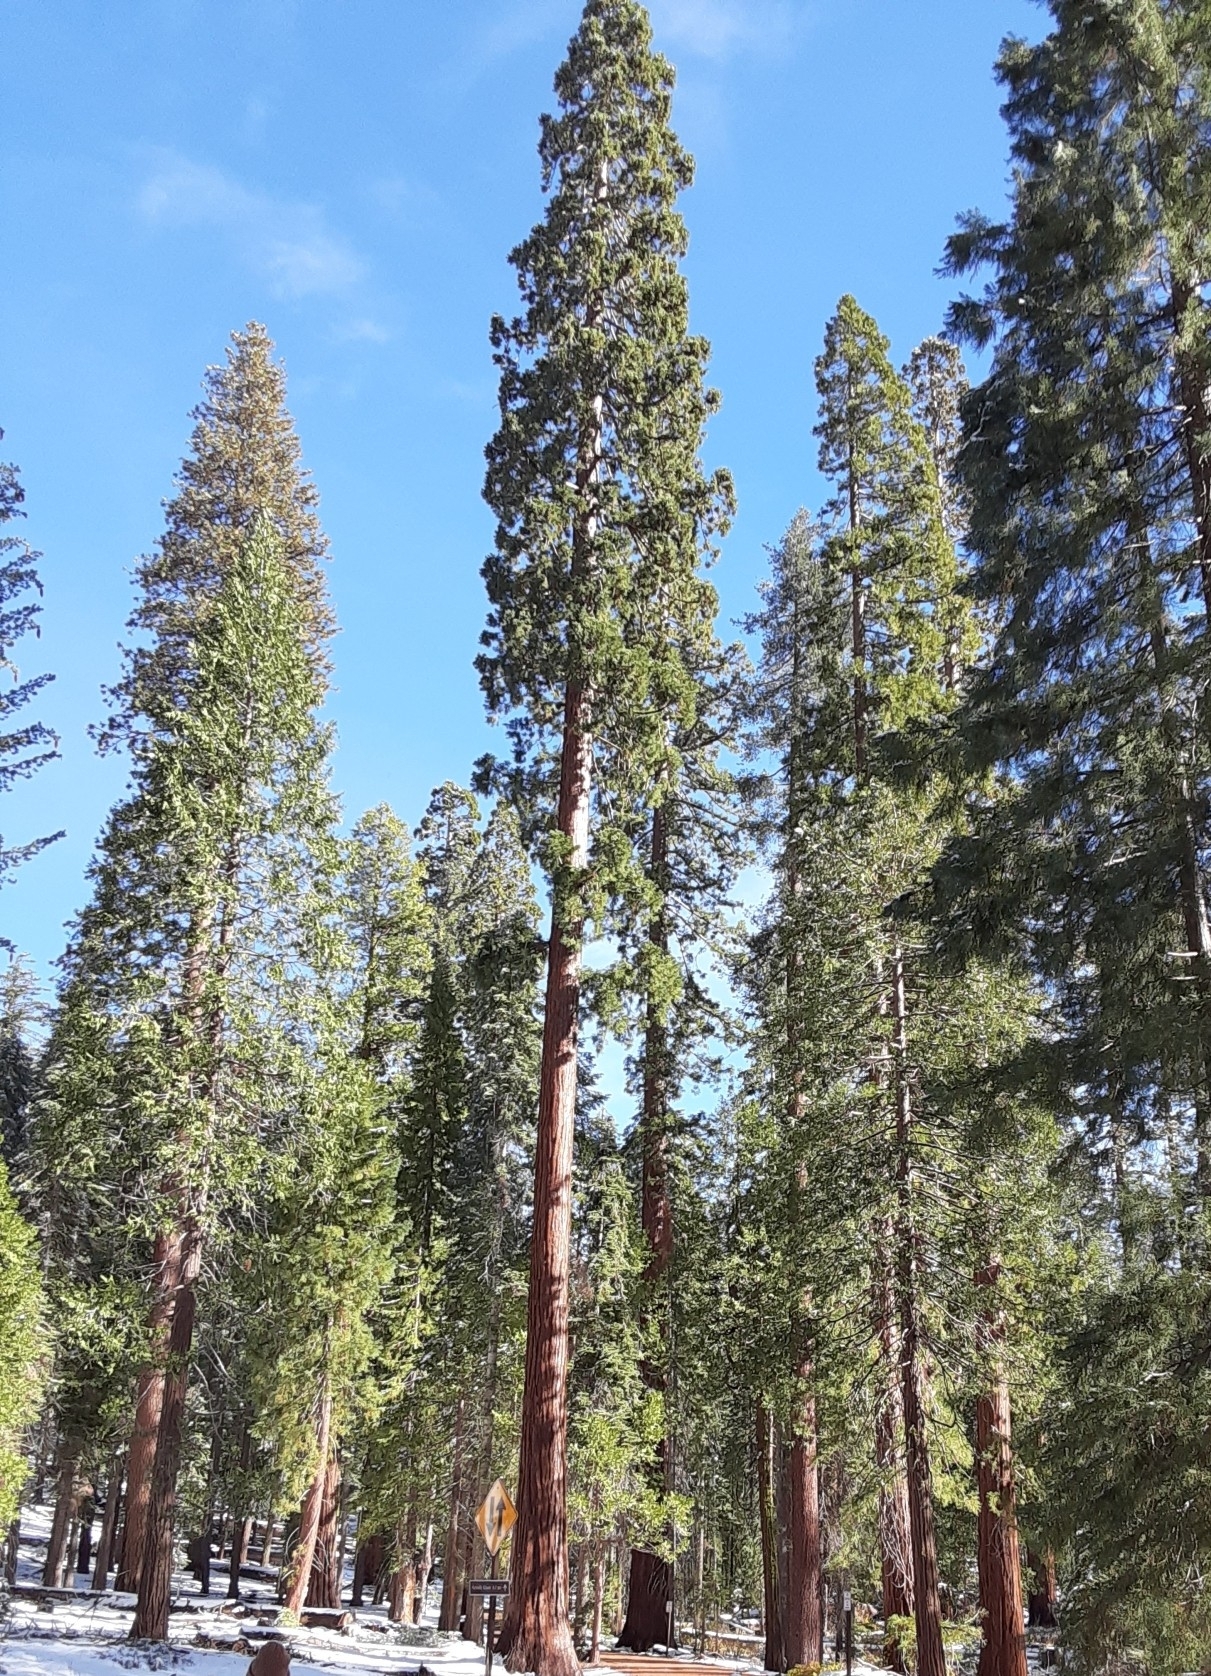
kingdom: Plantae
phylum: Tracheophyta
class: Pinopsida
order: Pinales
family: Cupressaceae
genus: Sequoiadendron
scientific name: Sequoiadendron giganteum
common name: Wellingtonia
